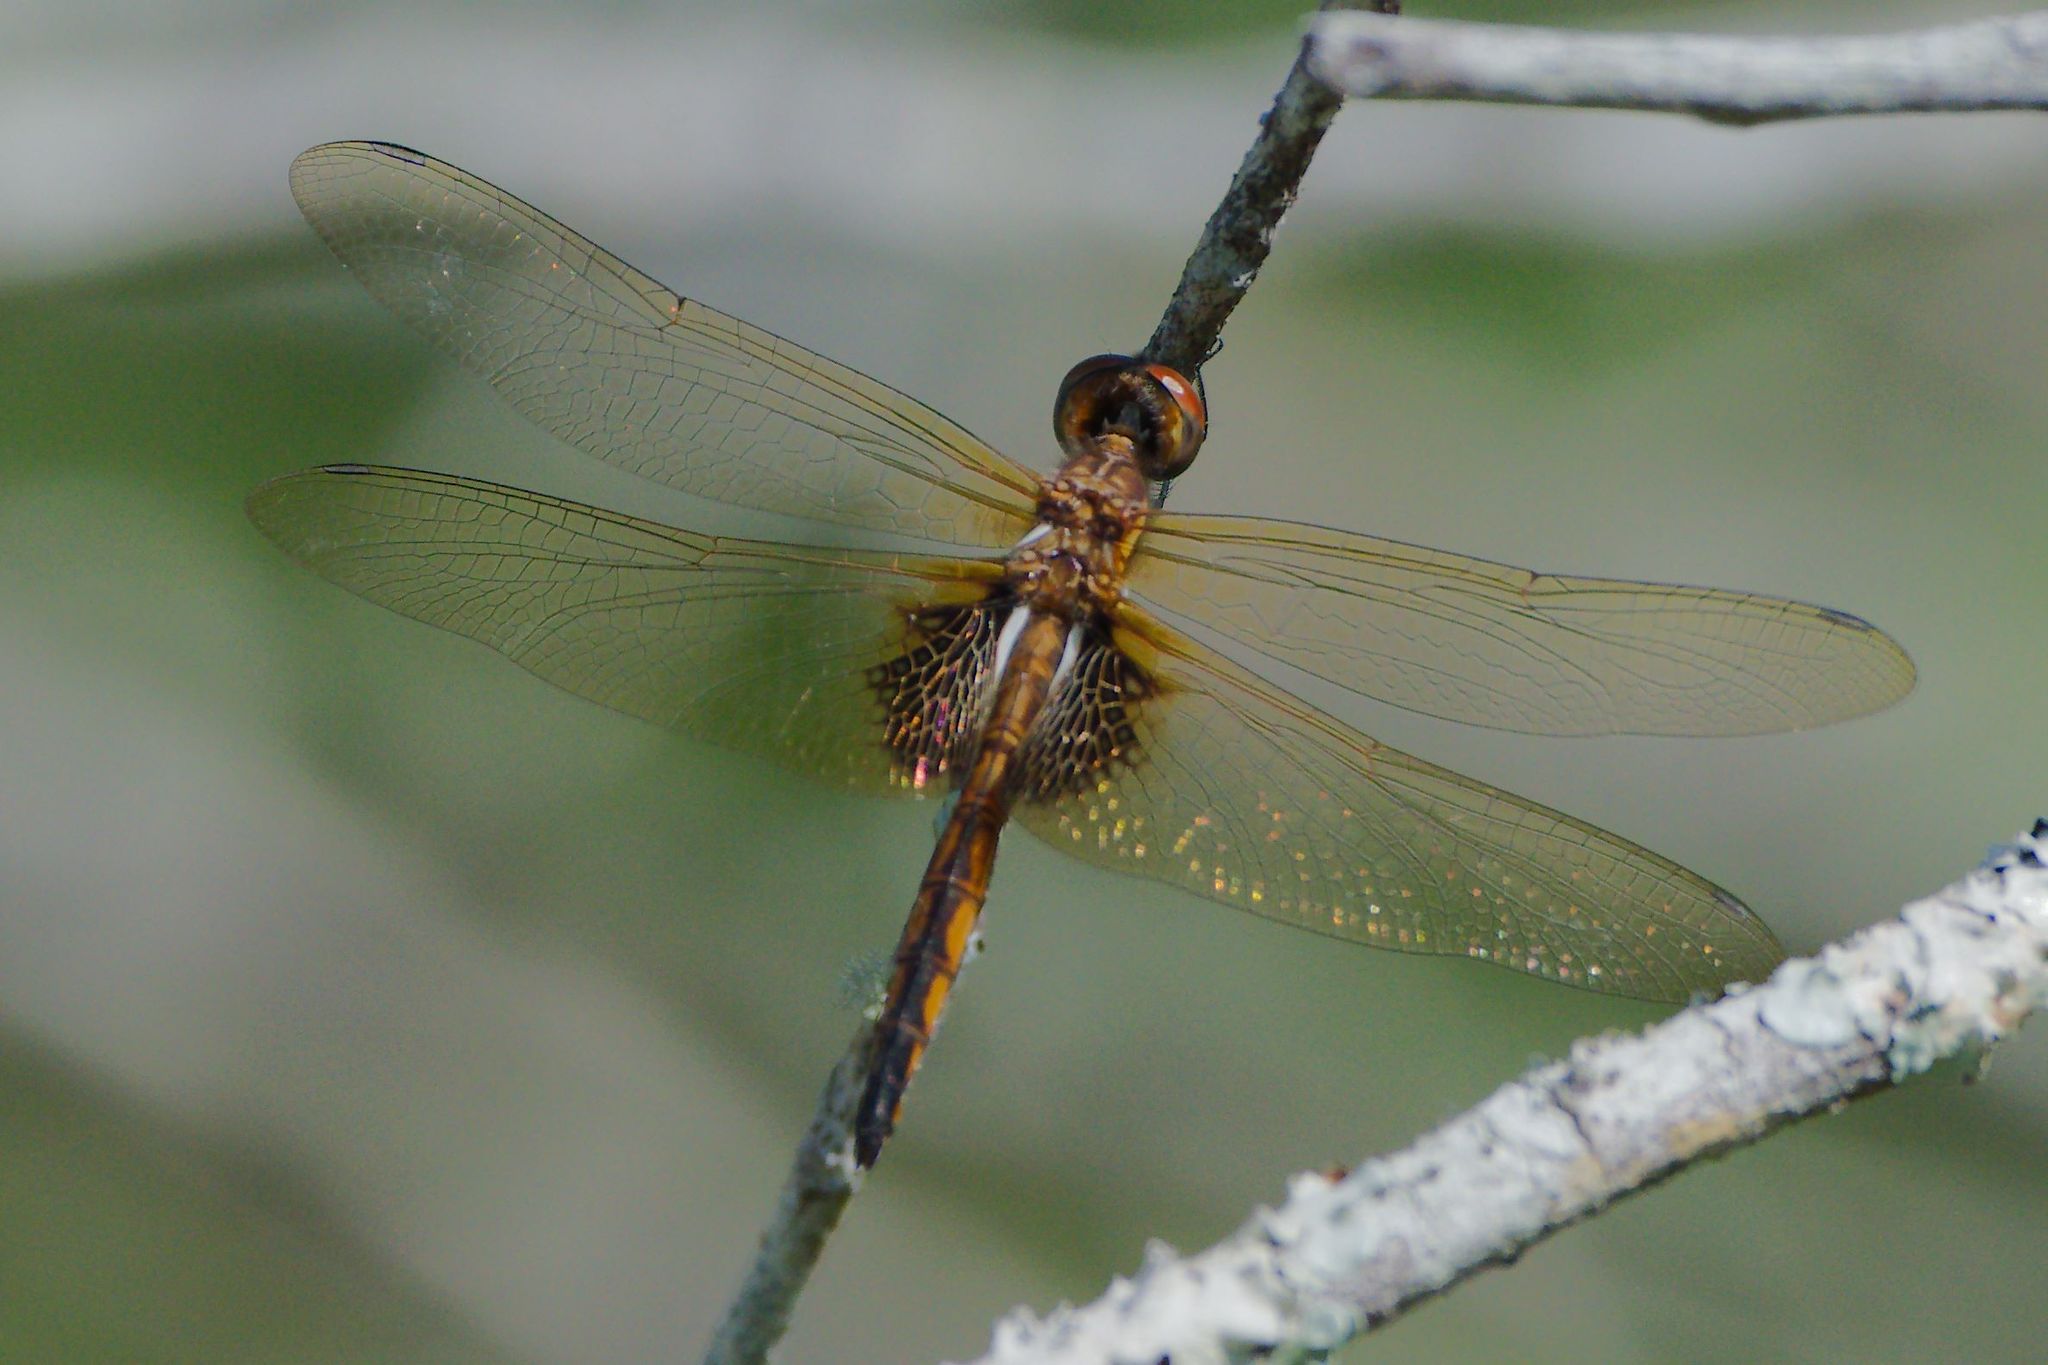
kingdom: Animalia
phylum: Arthropoda
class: Insecta
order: Odonata
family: Libellulidae
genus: Miathyria
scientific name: Miathyria marcella
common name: Hyacinth glider
